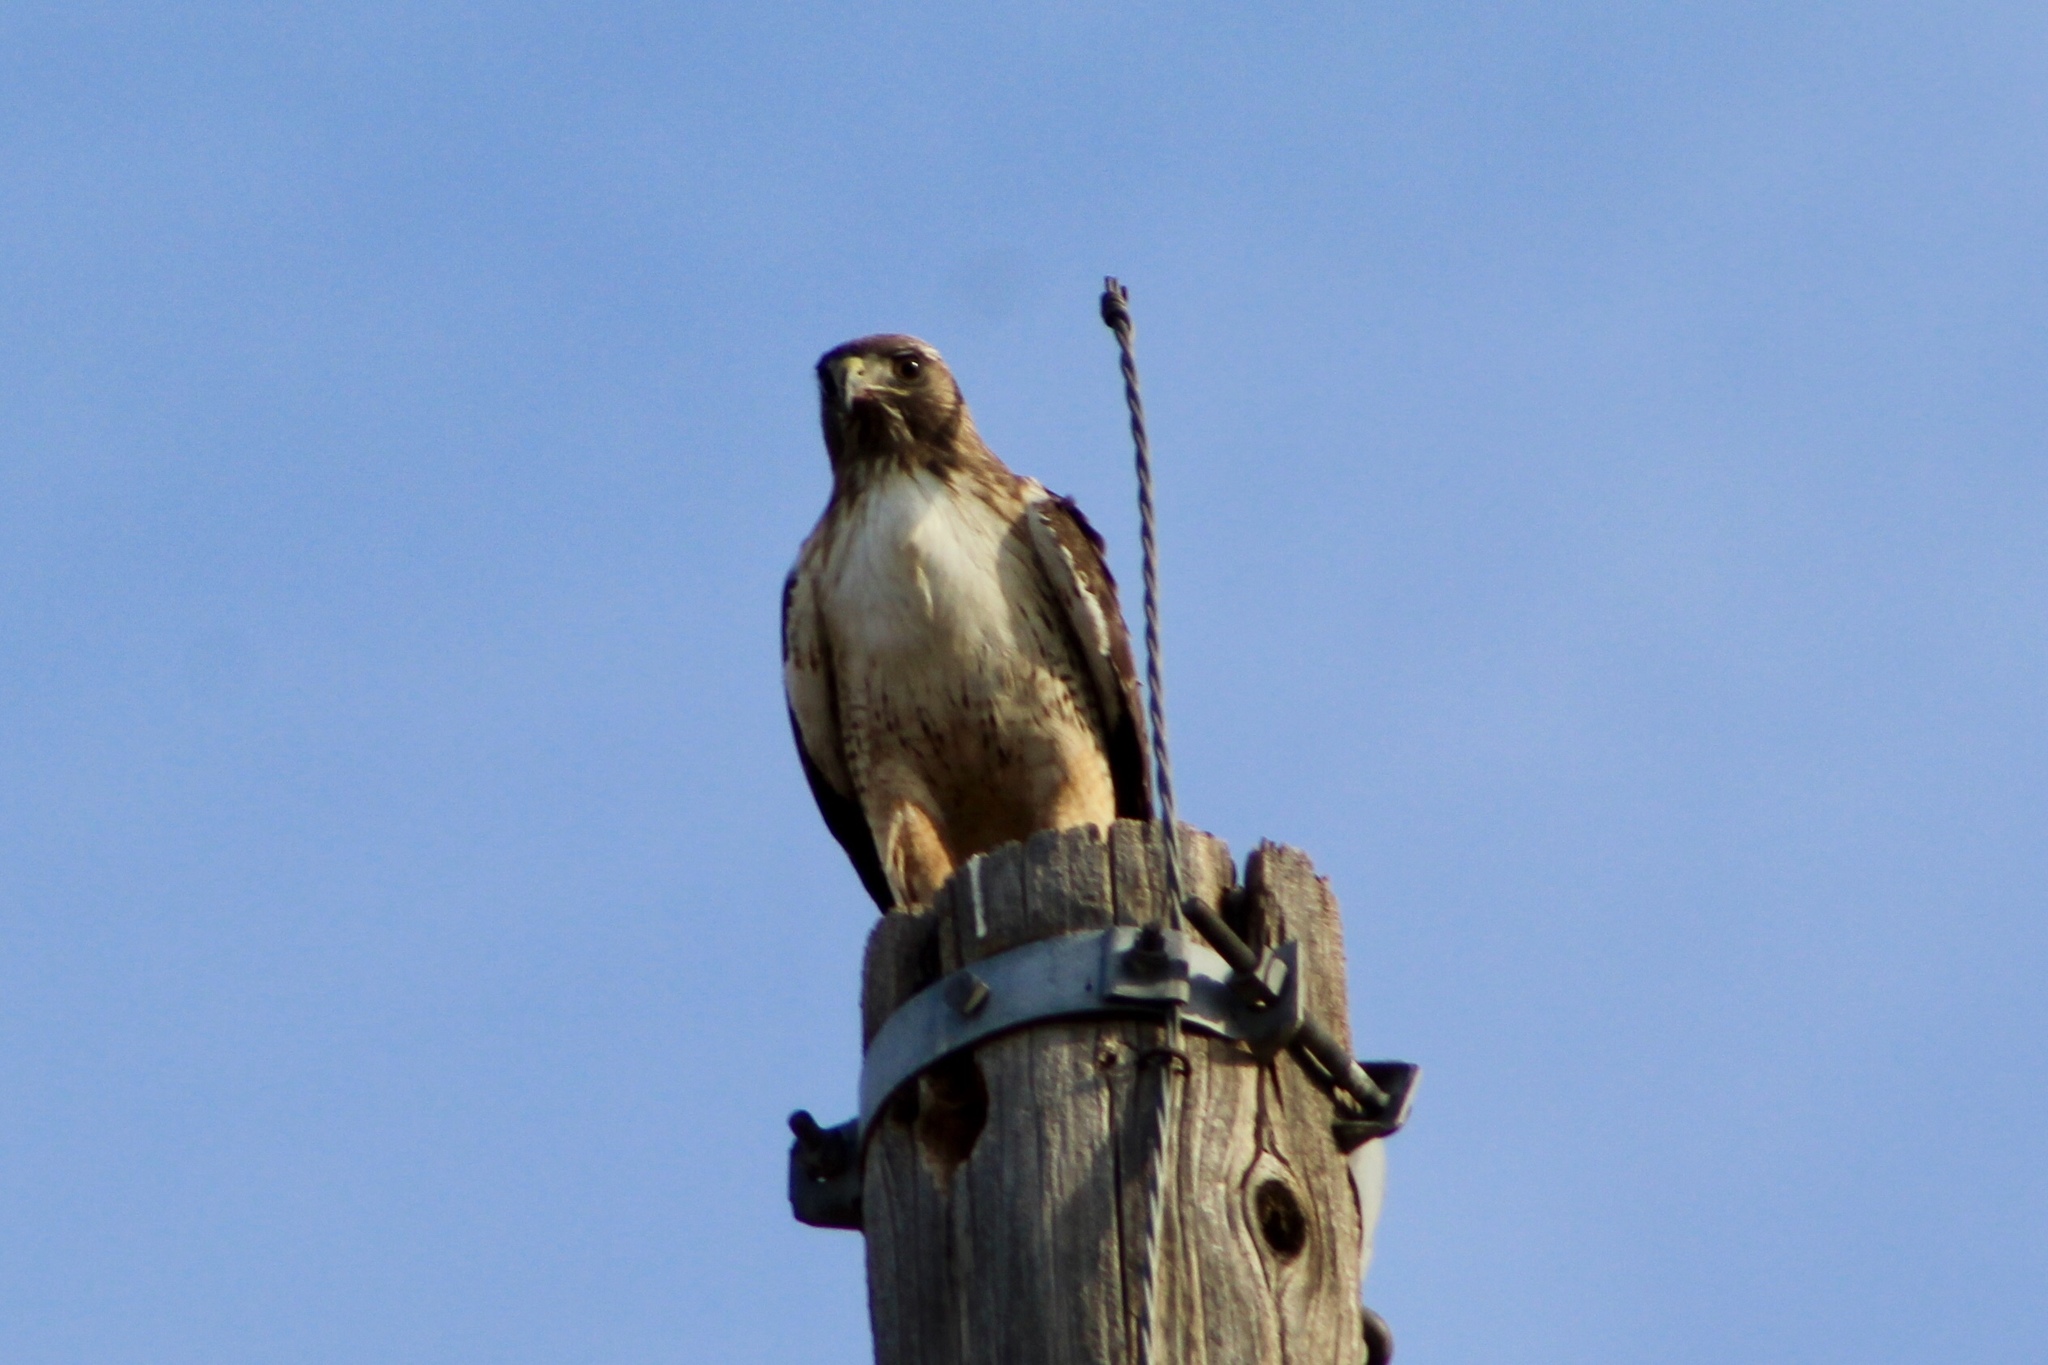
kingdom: Animalia
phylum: Chordata
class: Aves
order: Accipitriformes
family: Accipitridae
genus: Buteo
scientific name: Buteo jamaicensis
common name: Red-tailed hawk
